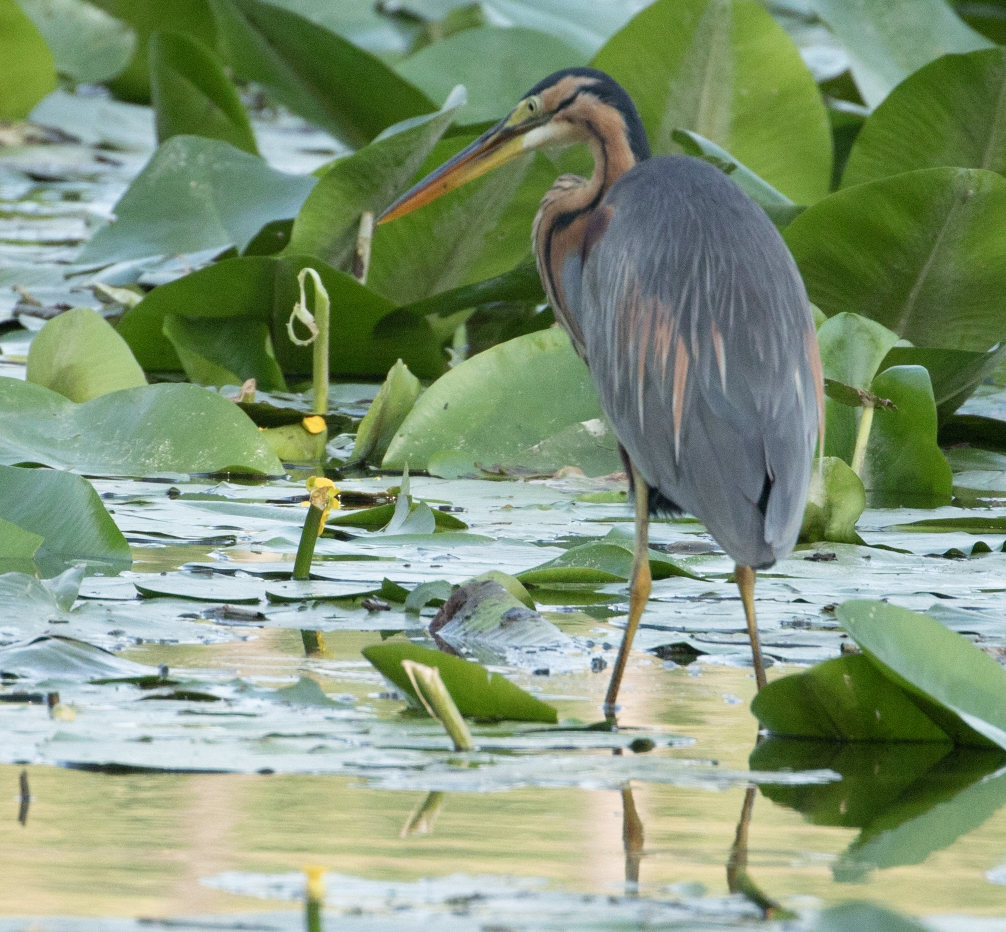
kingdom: Animalia
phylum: Chordata
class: Aves
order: Pelecaniformes
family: Ardeidae
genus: Ardea
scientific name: Ardea purpurea
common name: Purple heron
